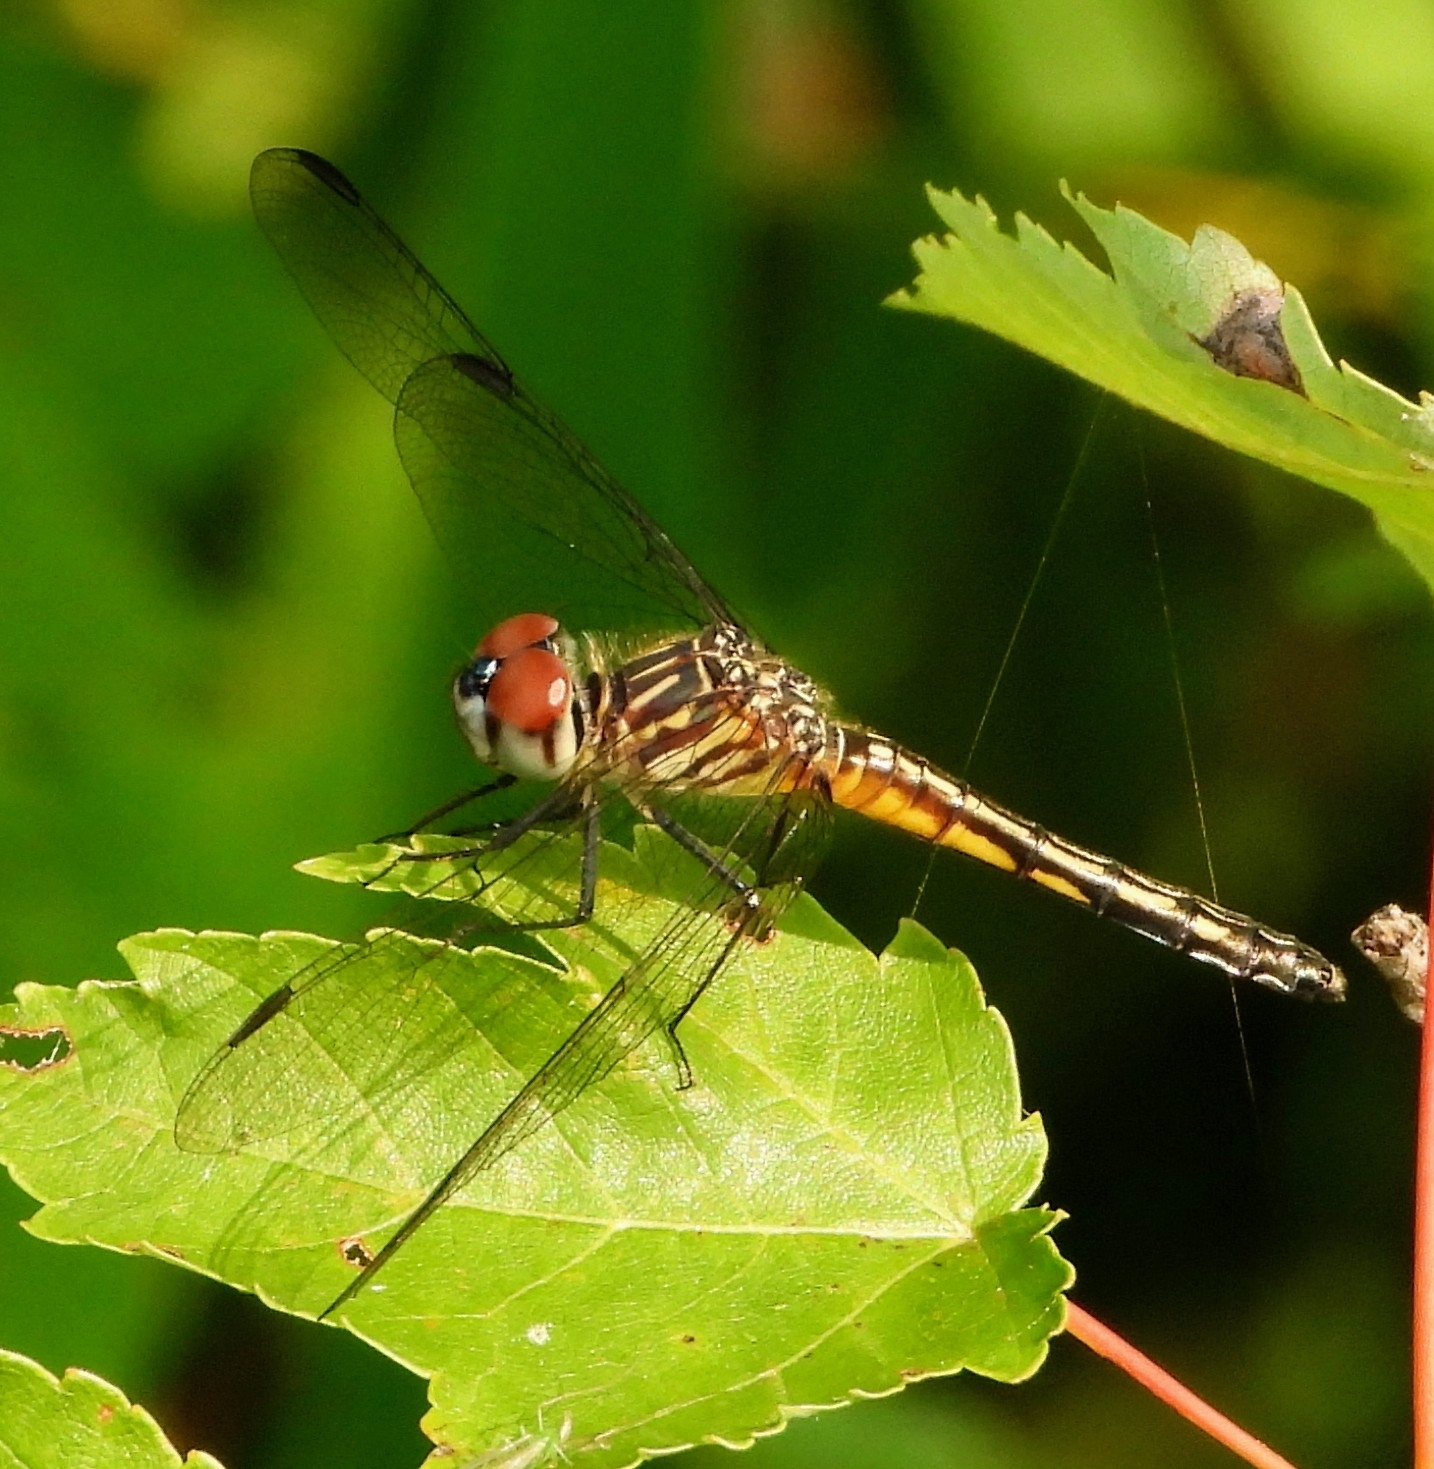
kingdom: Animalia
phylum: Arthropoda
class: Insecta
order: Odonata
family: Libellulidae
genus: Pachydiplax
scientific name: Pachydiplax longipennis
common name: Blue dasher
